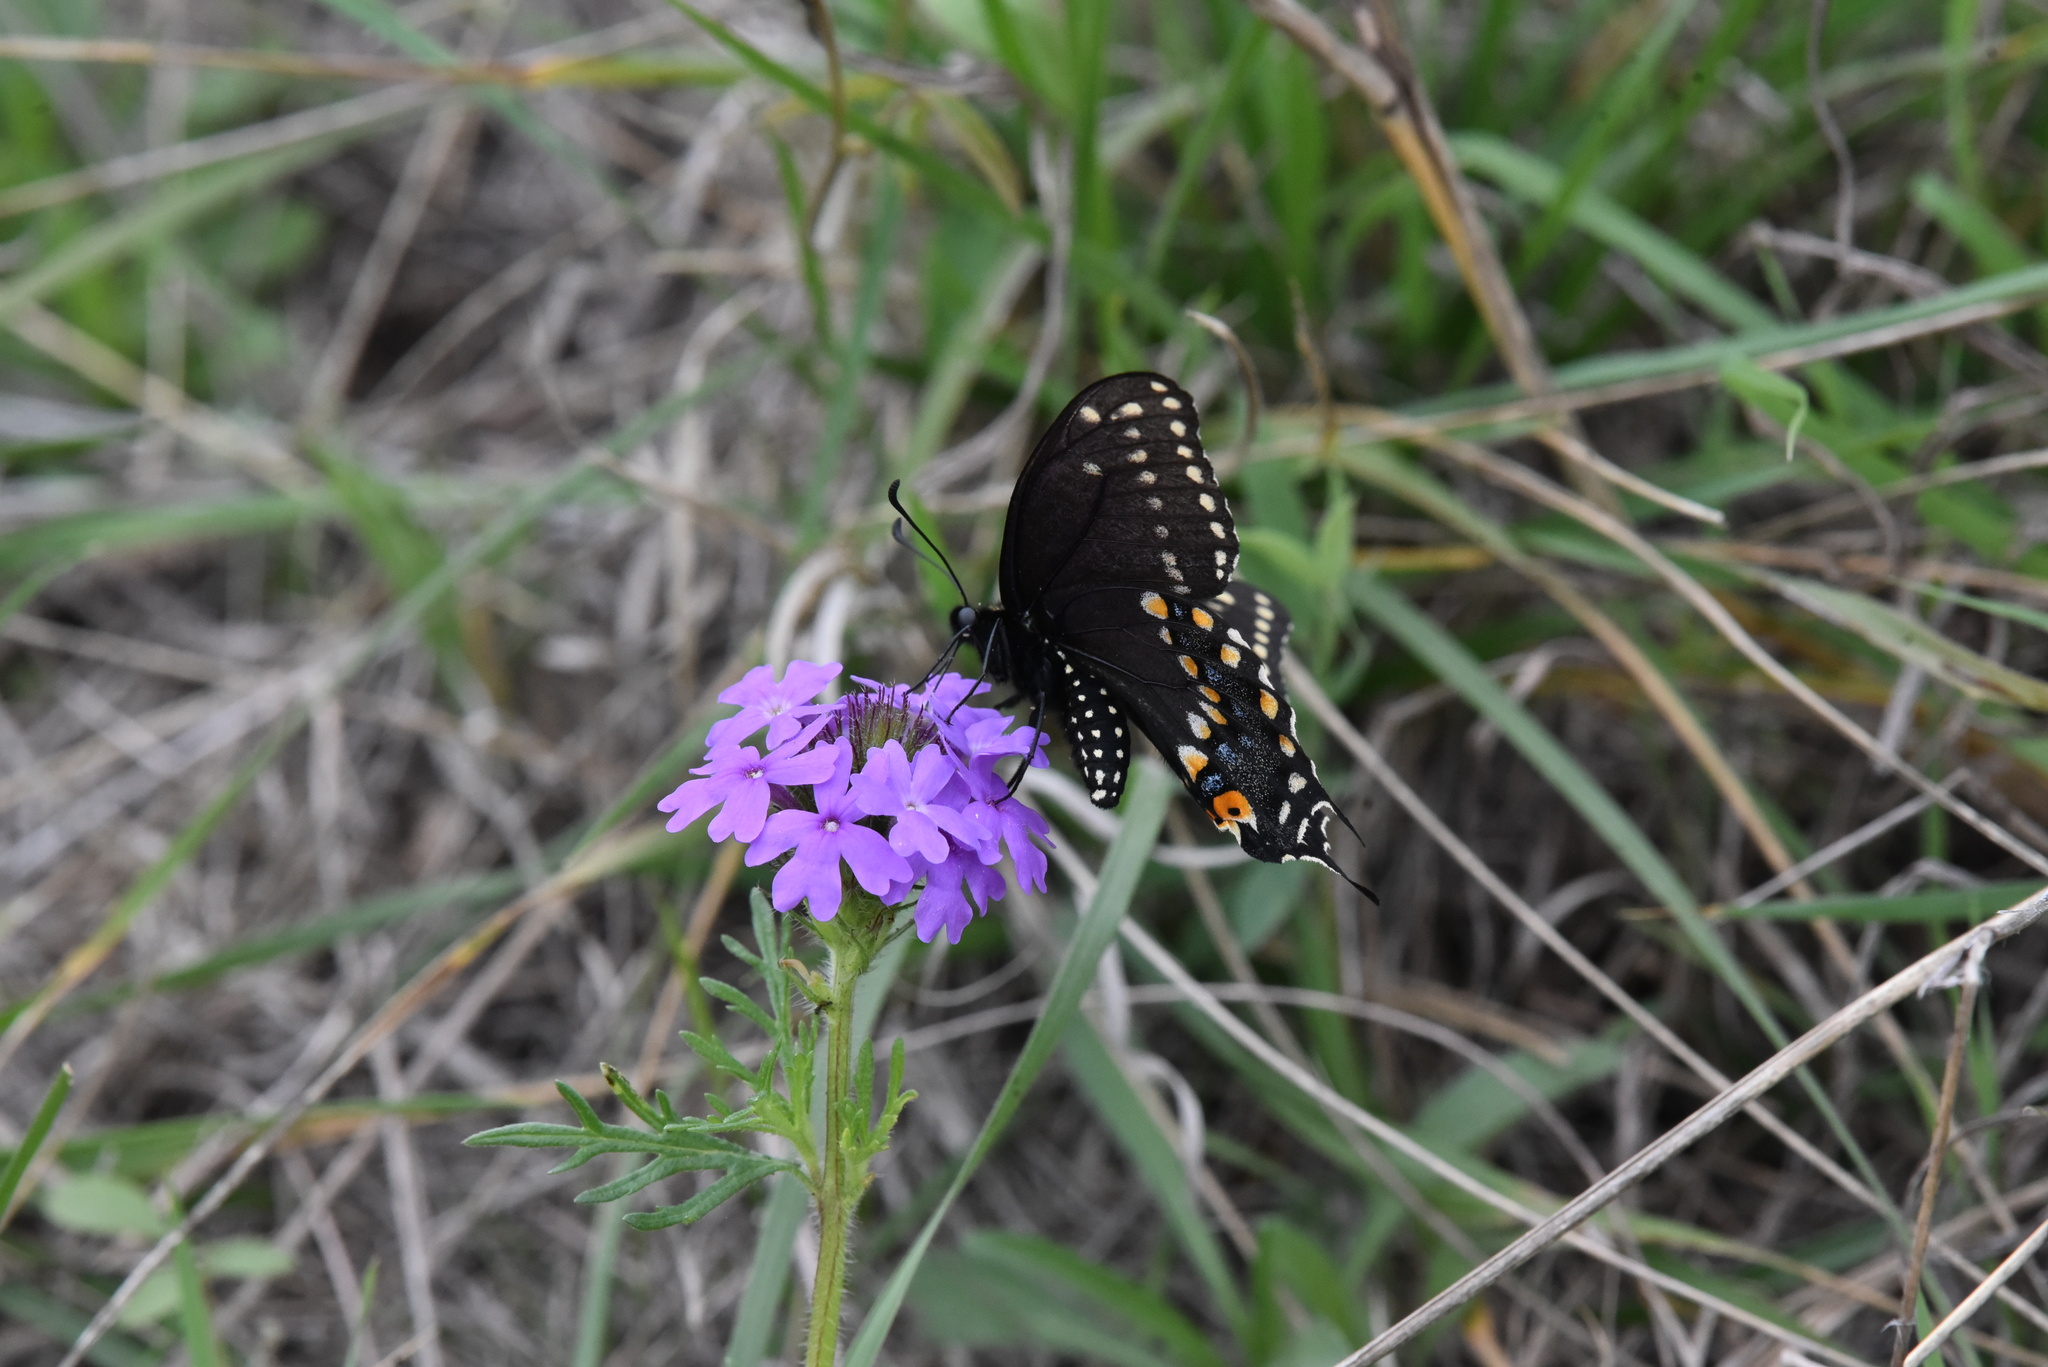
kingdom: Animalia
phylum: Arthropoda
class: Insecta
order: Lepidoptera
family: Papilionidae
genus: Papilio
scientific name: Papilio polyxenes
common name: Black swallowtail
